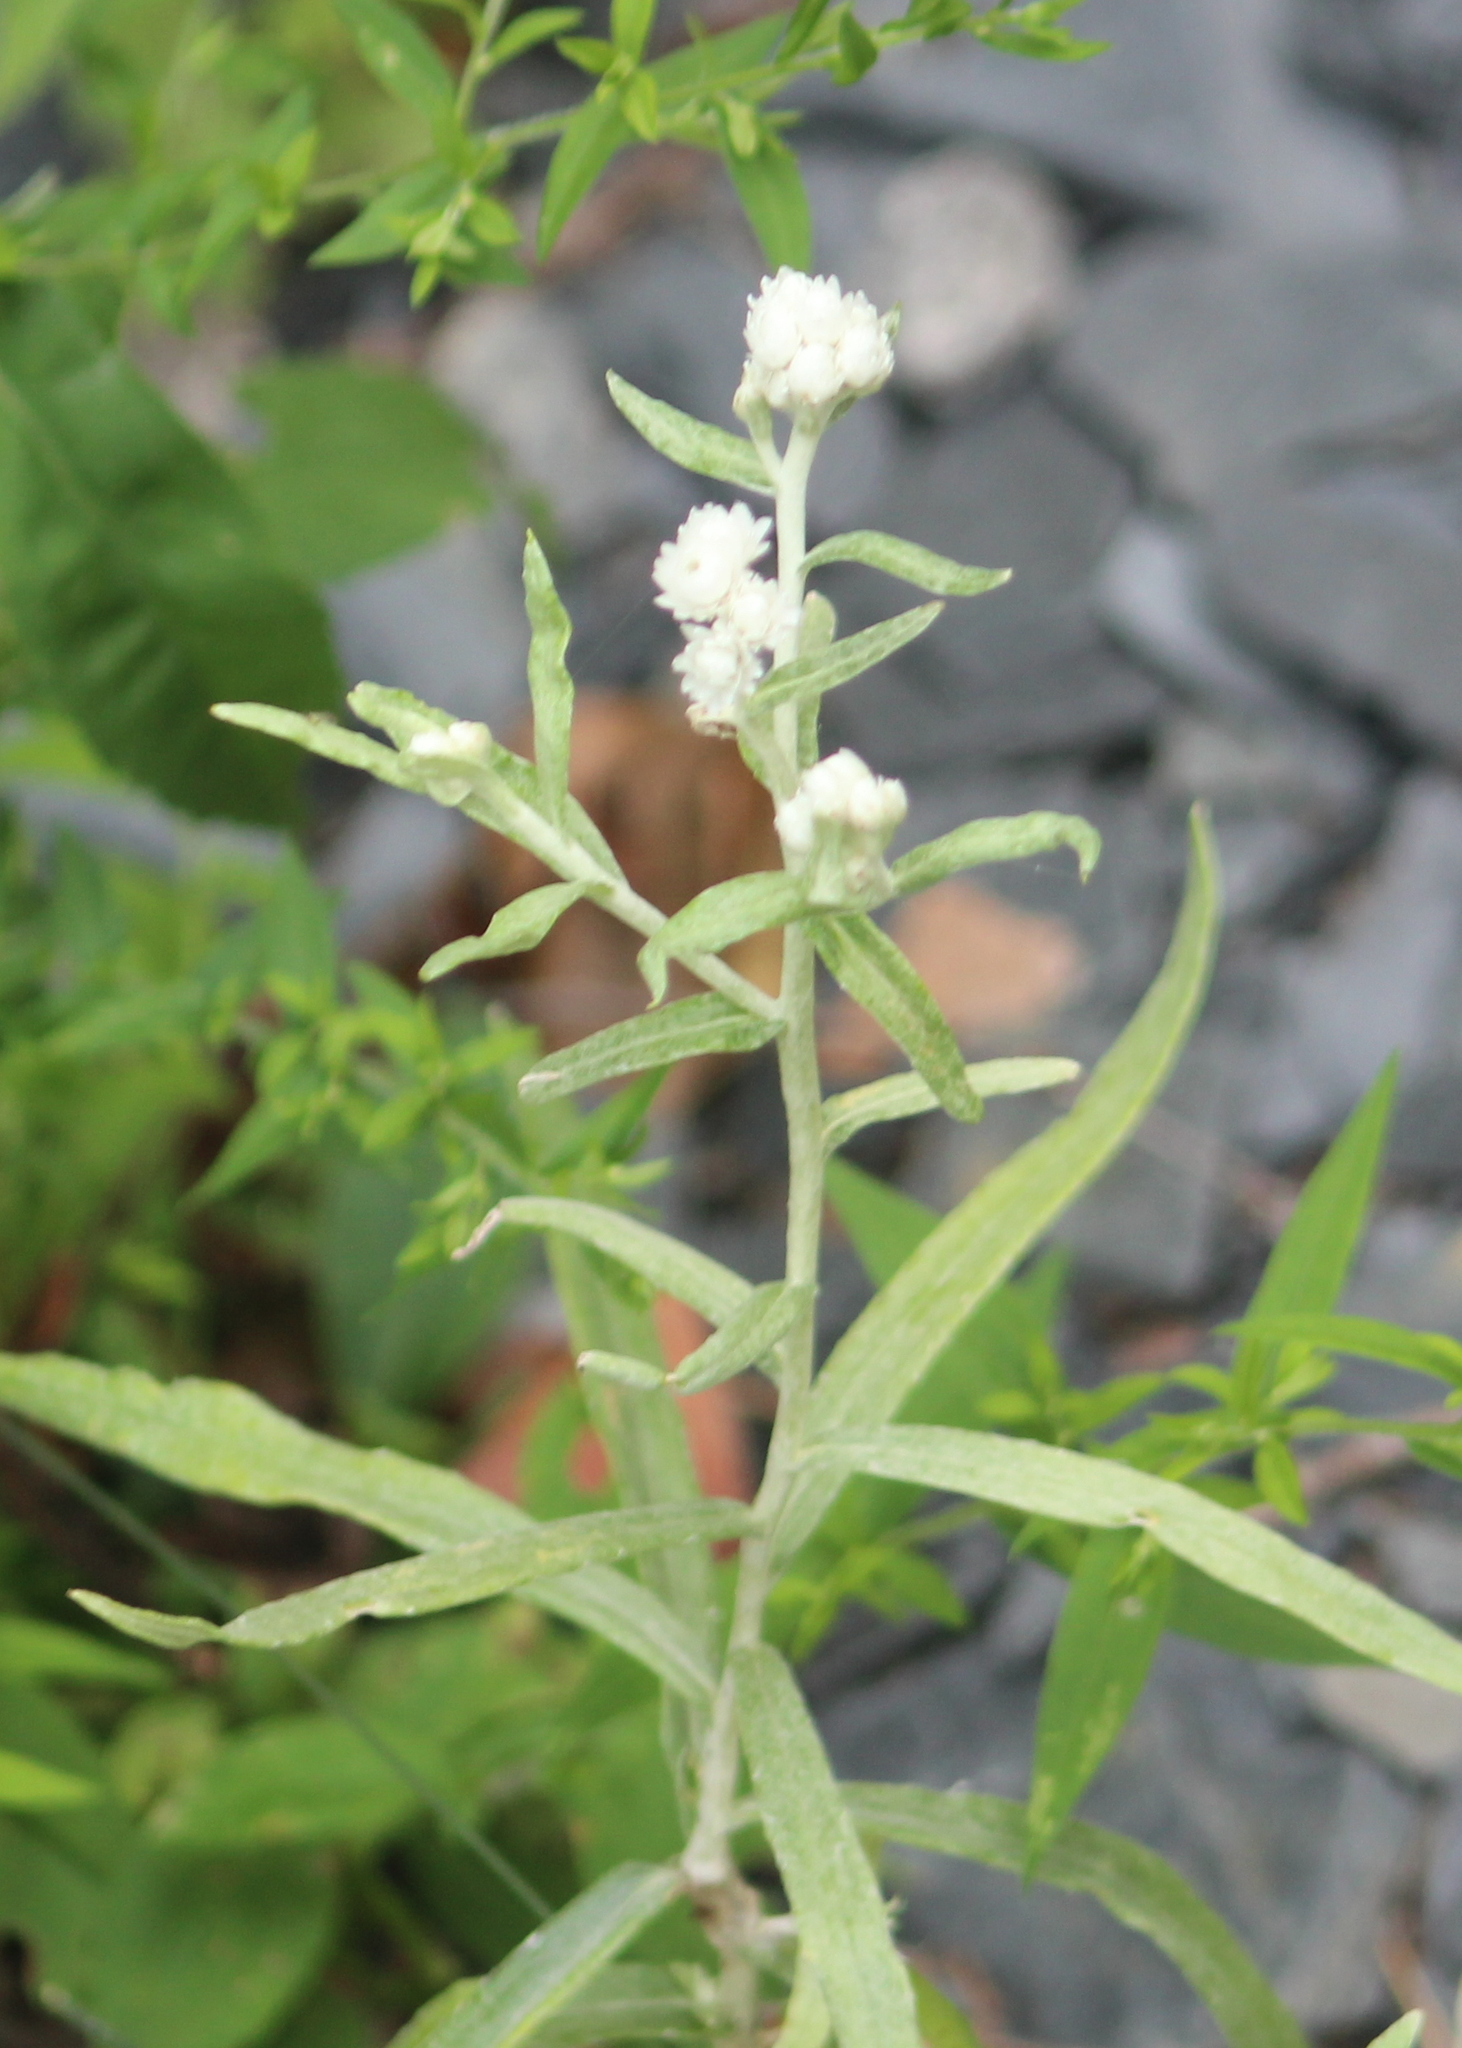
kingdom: Plantae
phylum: Tracheophyta
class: Magnoliopsida
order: Asterales
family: Asteraceae
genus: Anaphalis
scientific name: Anaphalis margaritacea
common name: Pearly everlasting
